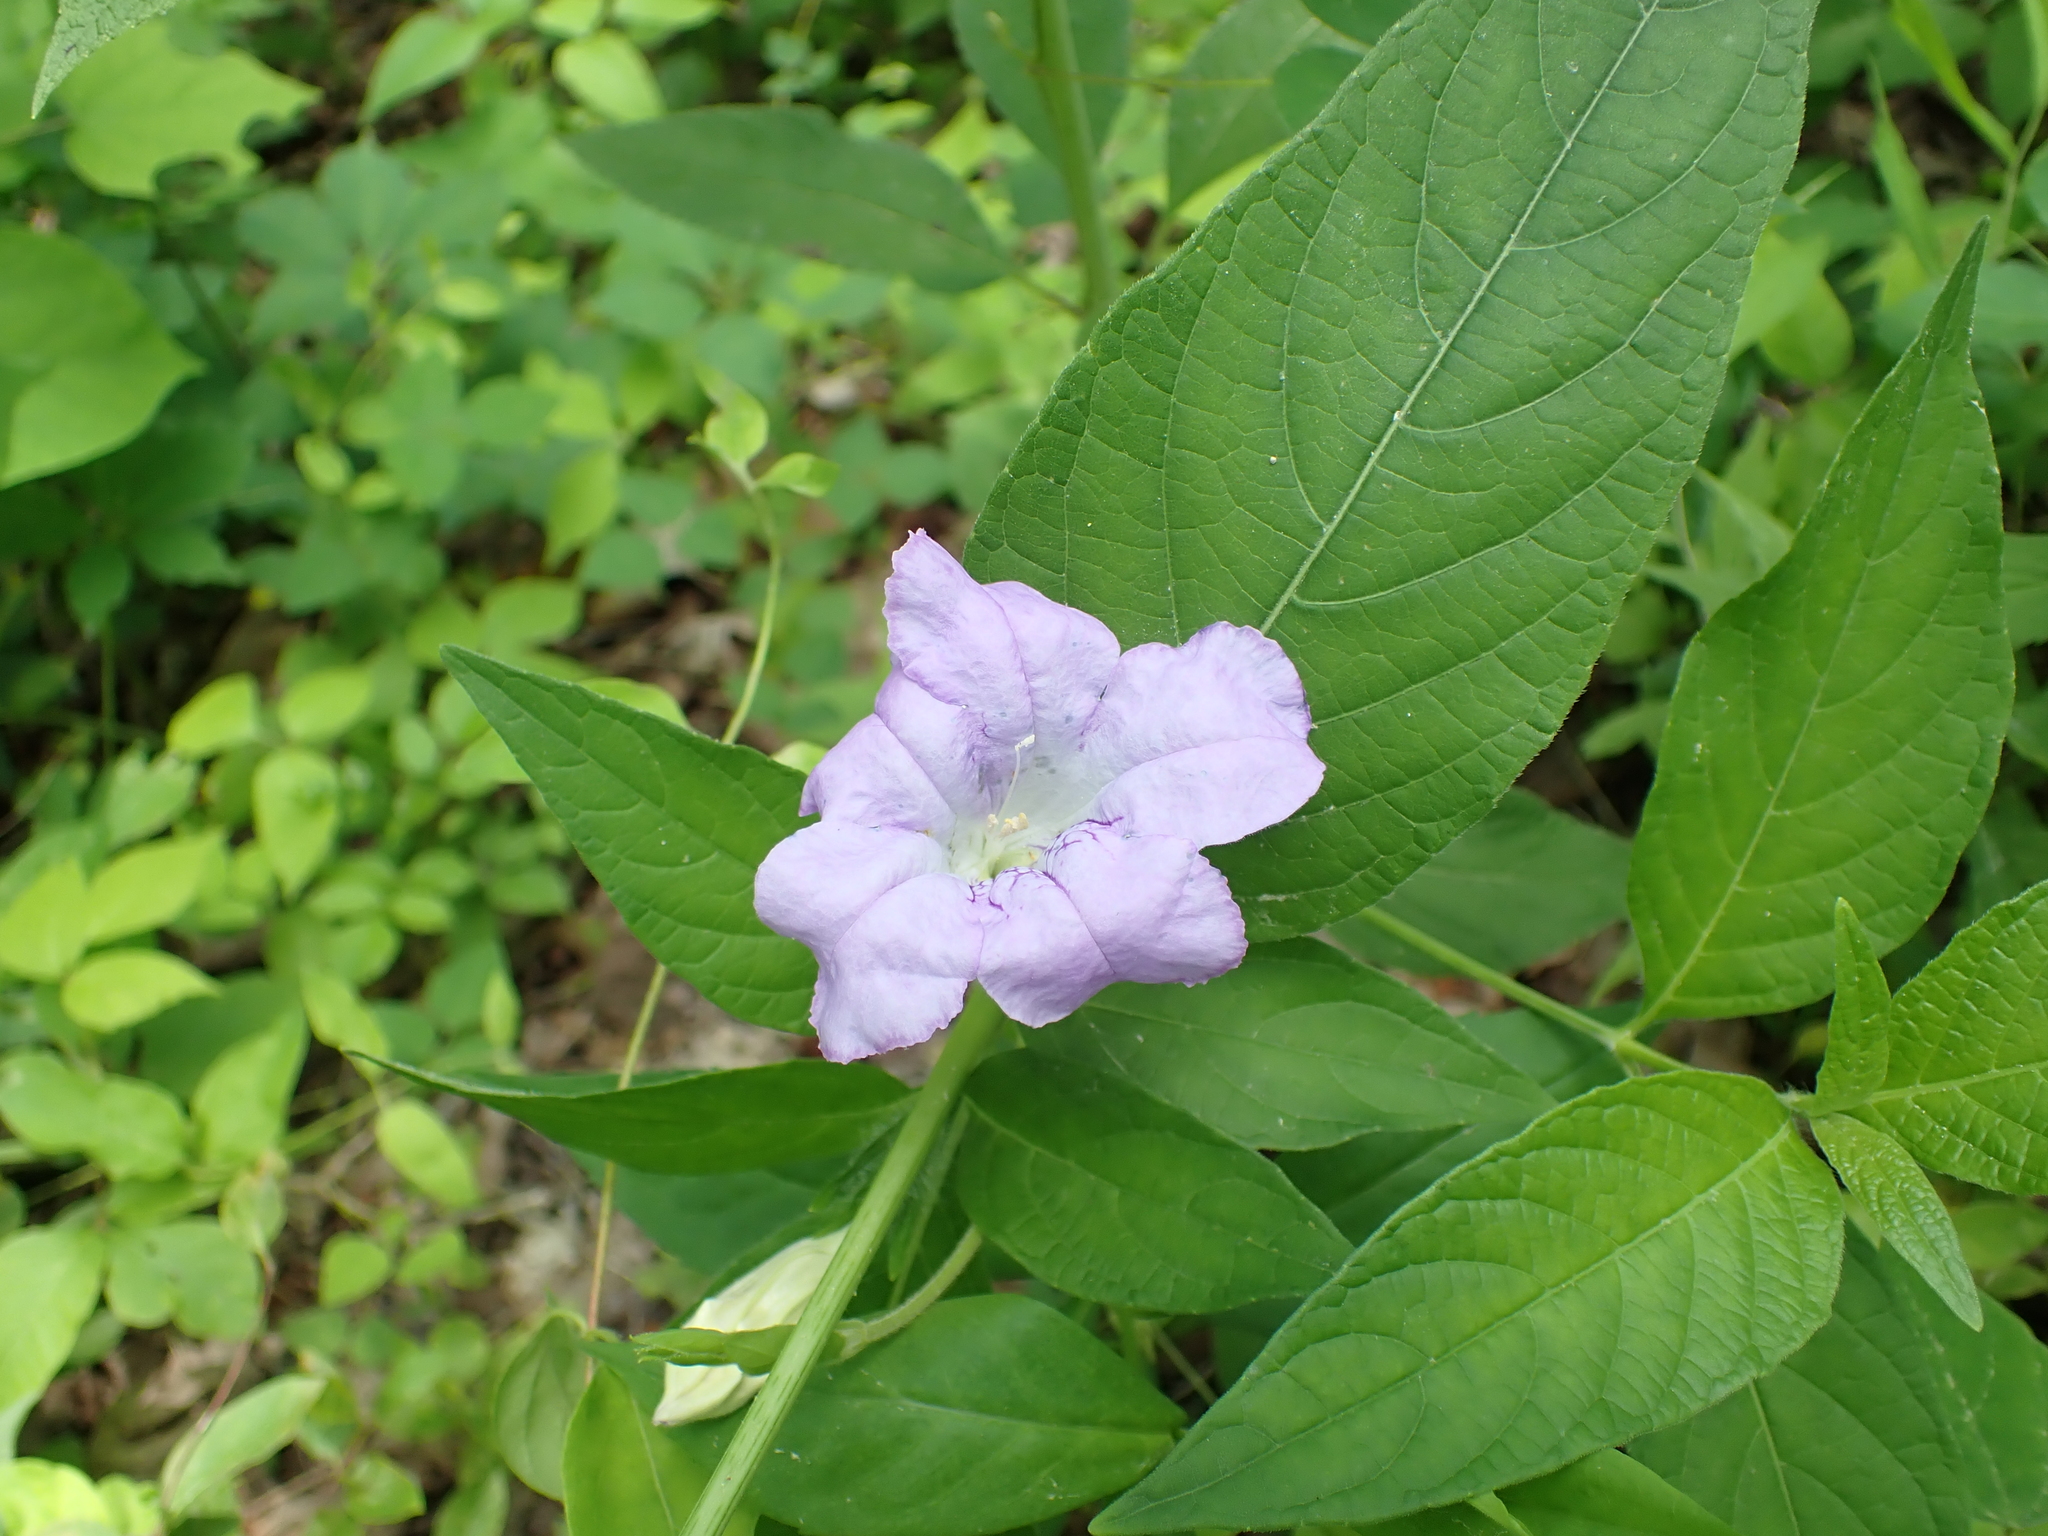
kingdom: Plantae
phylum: Tracheophyta
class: Magnoliopsida
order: Lamiales
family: Acanthaceae
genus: Ruellia
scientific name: Ruellia strepens
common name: Limestone wild petunia
